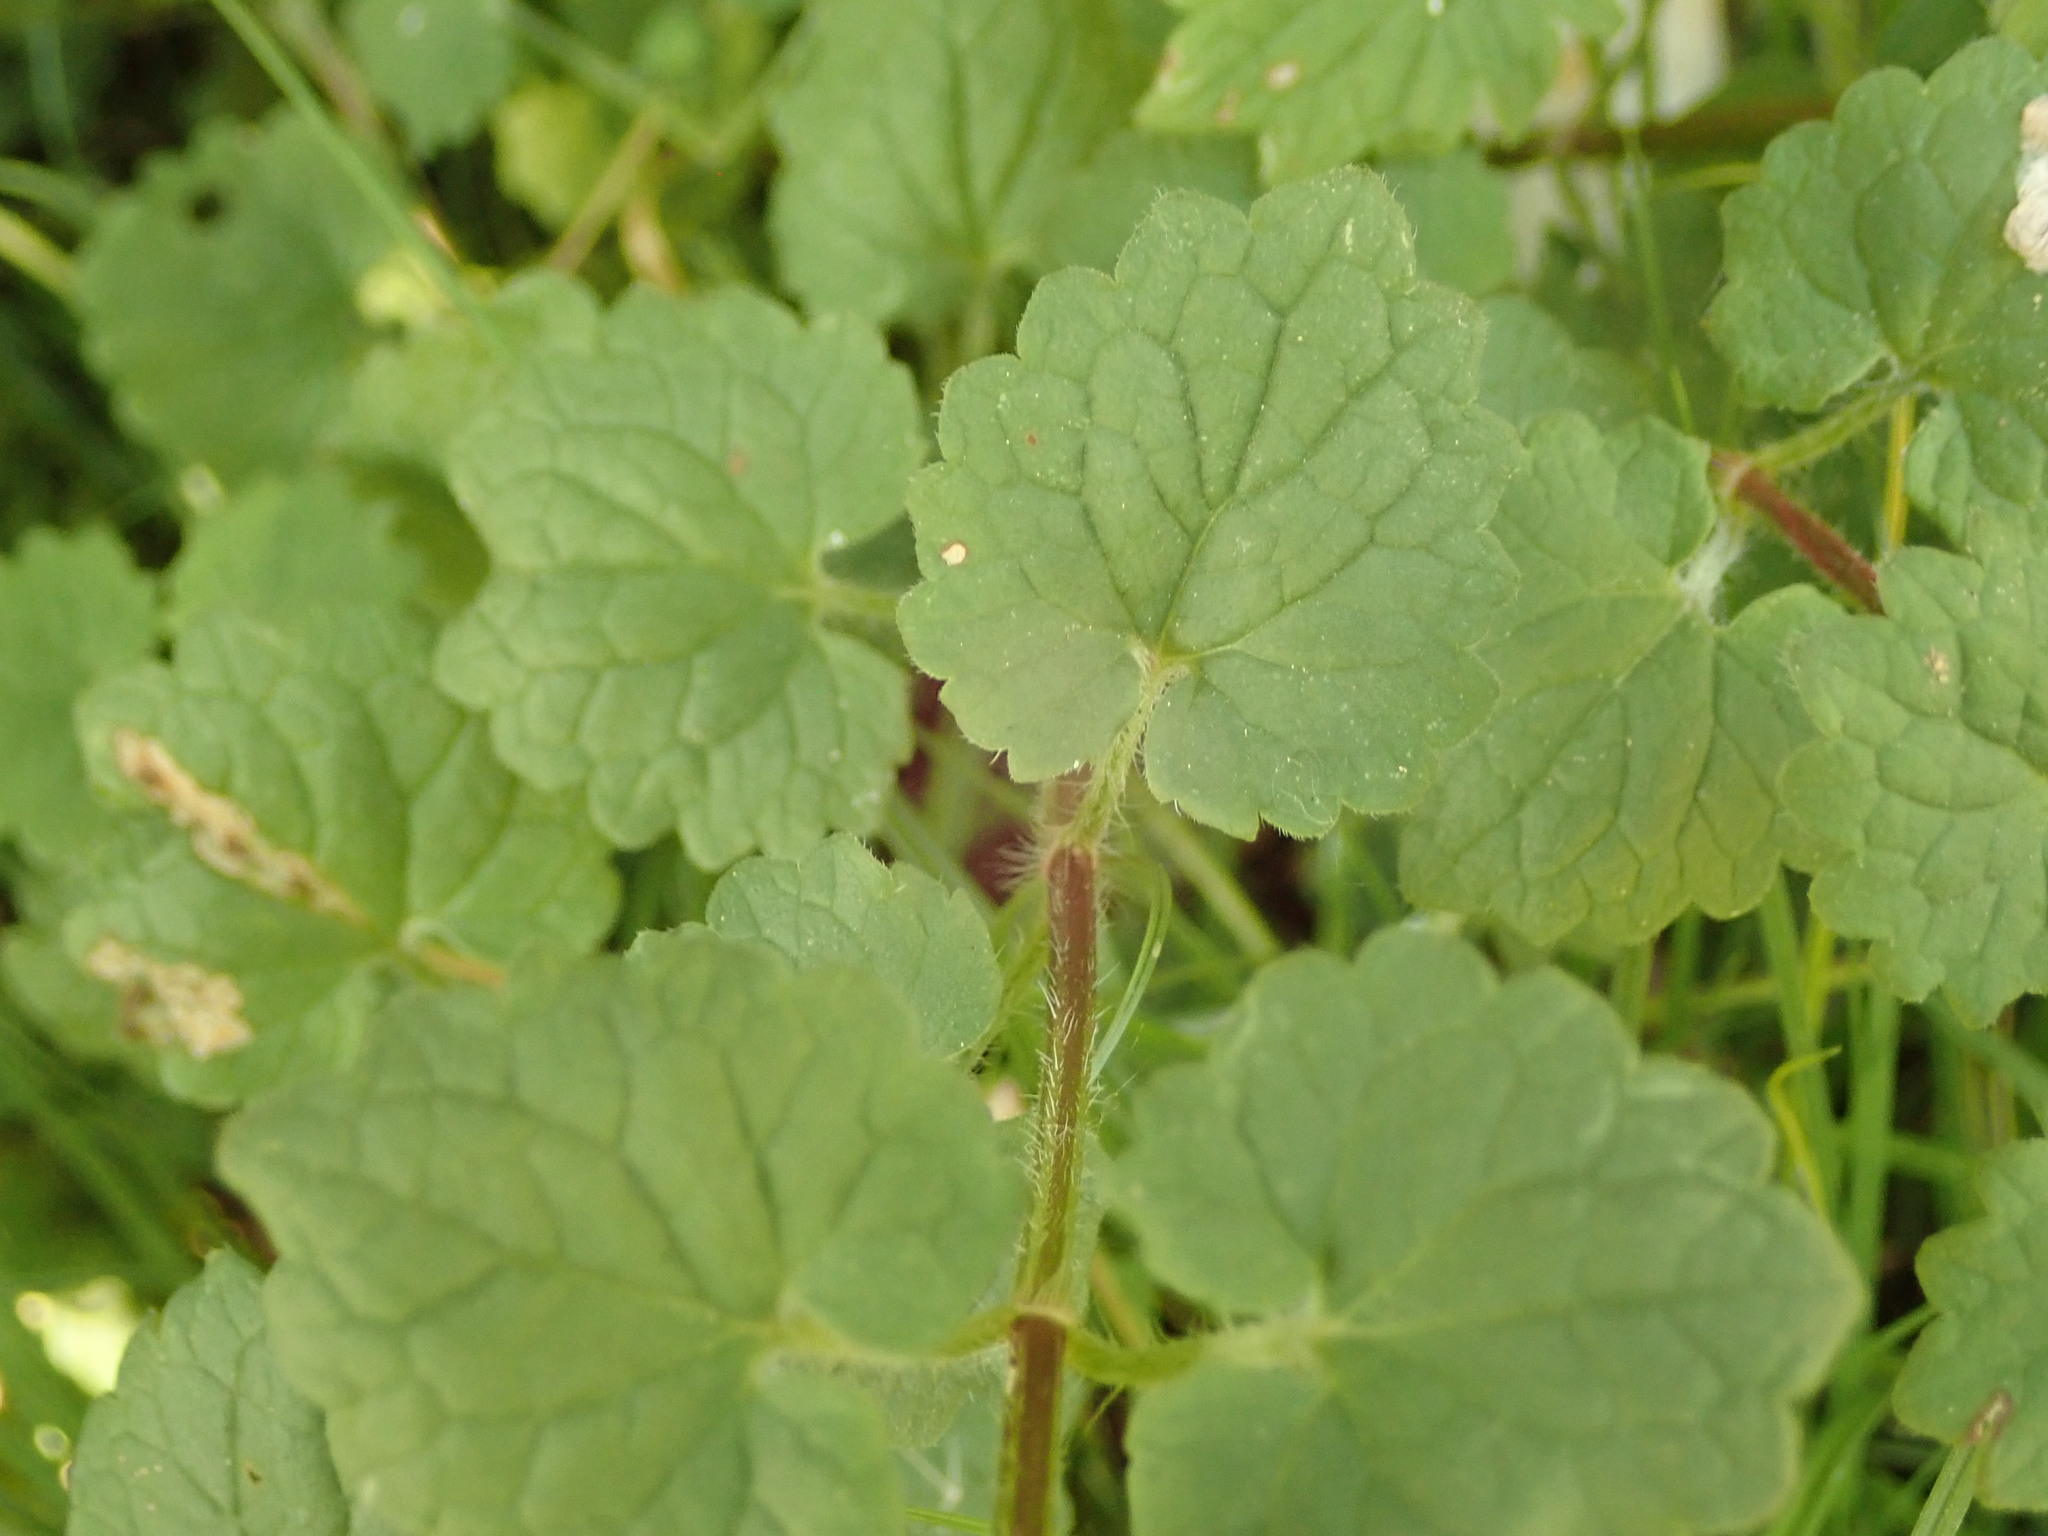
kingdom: Plantae
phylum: Tracheophyta
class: Magnoliopsida
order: Lamiales
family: Lamiaceae
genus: Glechoma
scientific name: Glechoma hederacea
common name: Ground ivy
